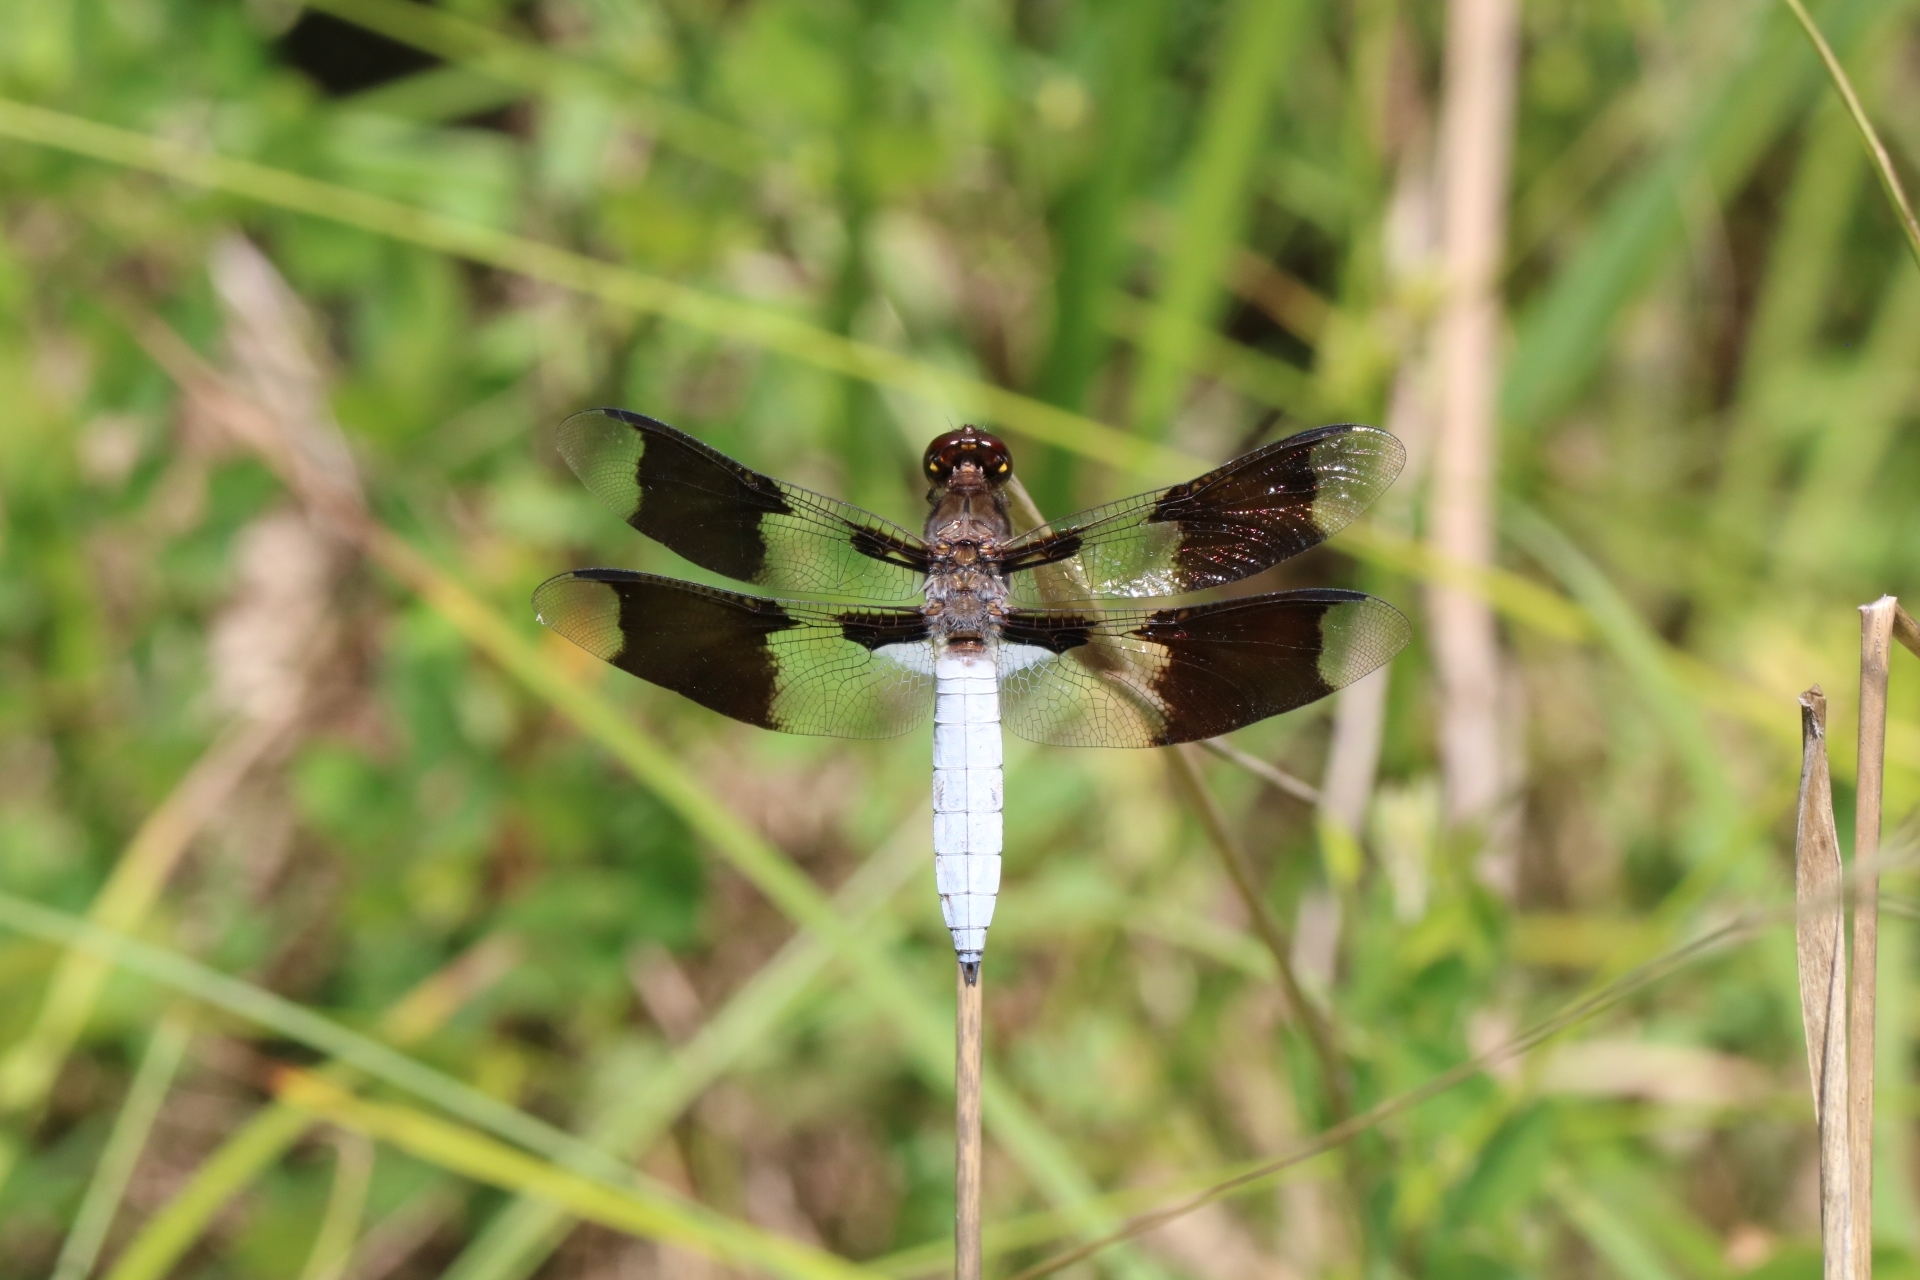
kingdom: Animalia
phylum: Arthropoda
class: Insecta
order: Odonata
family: Libellulidae
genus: Plathemis
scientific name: Plathemis lydia
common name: Common whitetail
